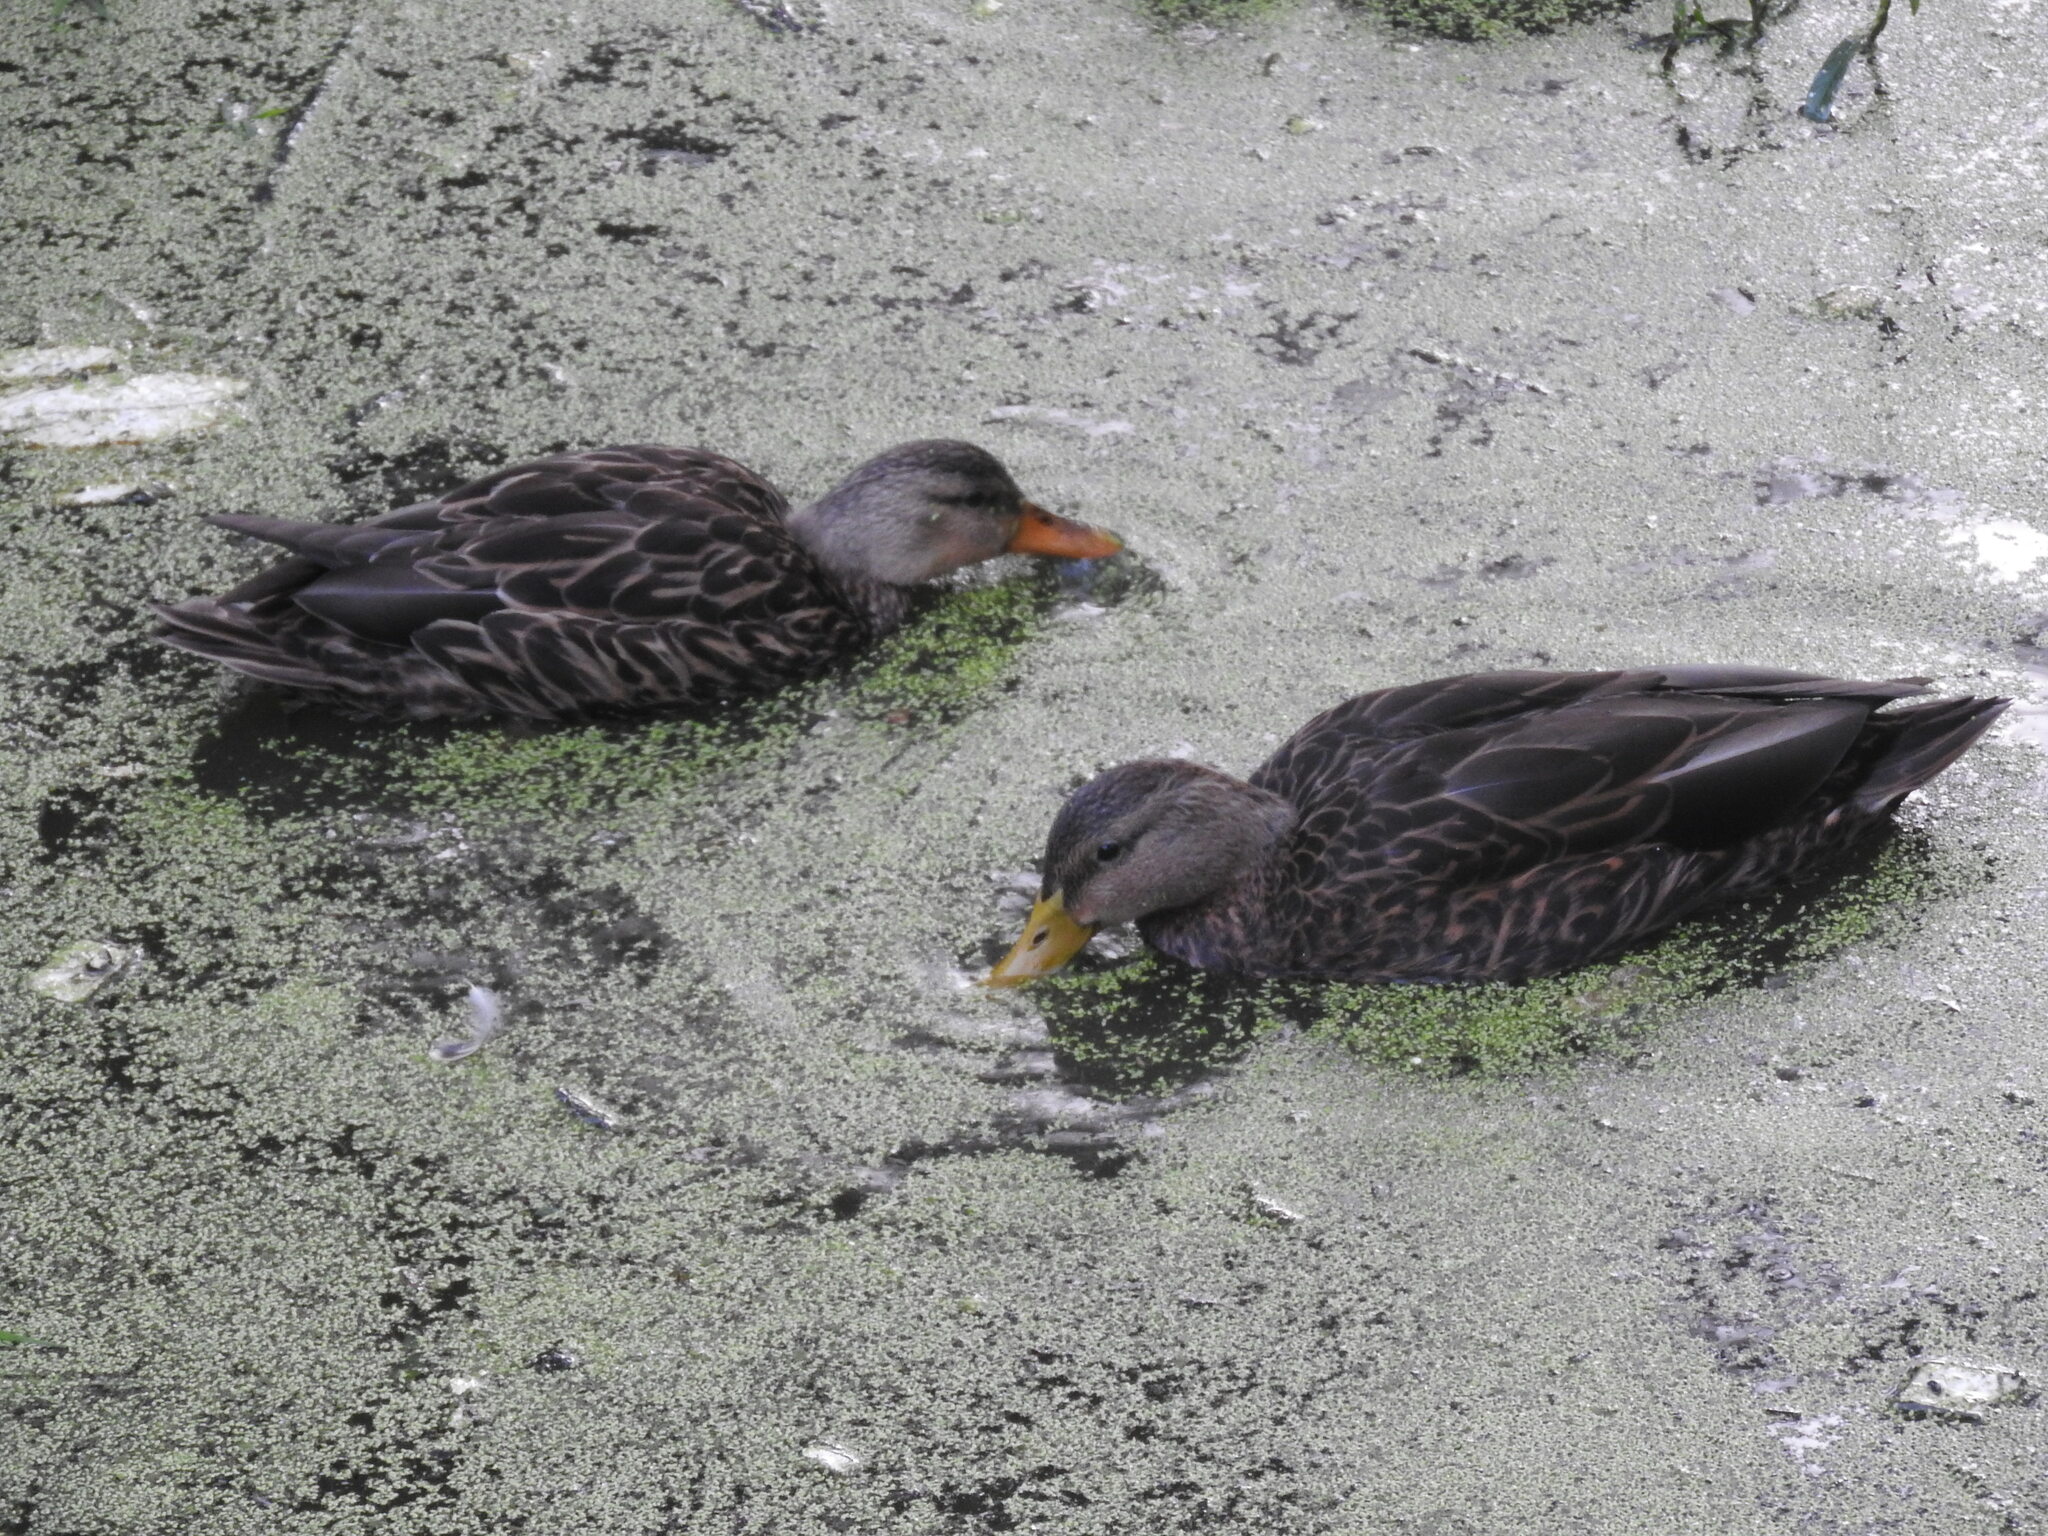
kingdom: Animalia
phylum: Chordata
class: Aves
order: Anseriformes
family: Anatidae
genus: Anas
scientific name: Anas diazi
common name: Mexican duck
